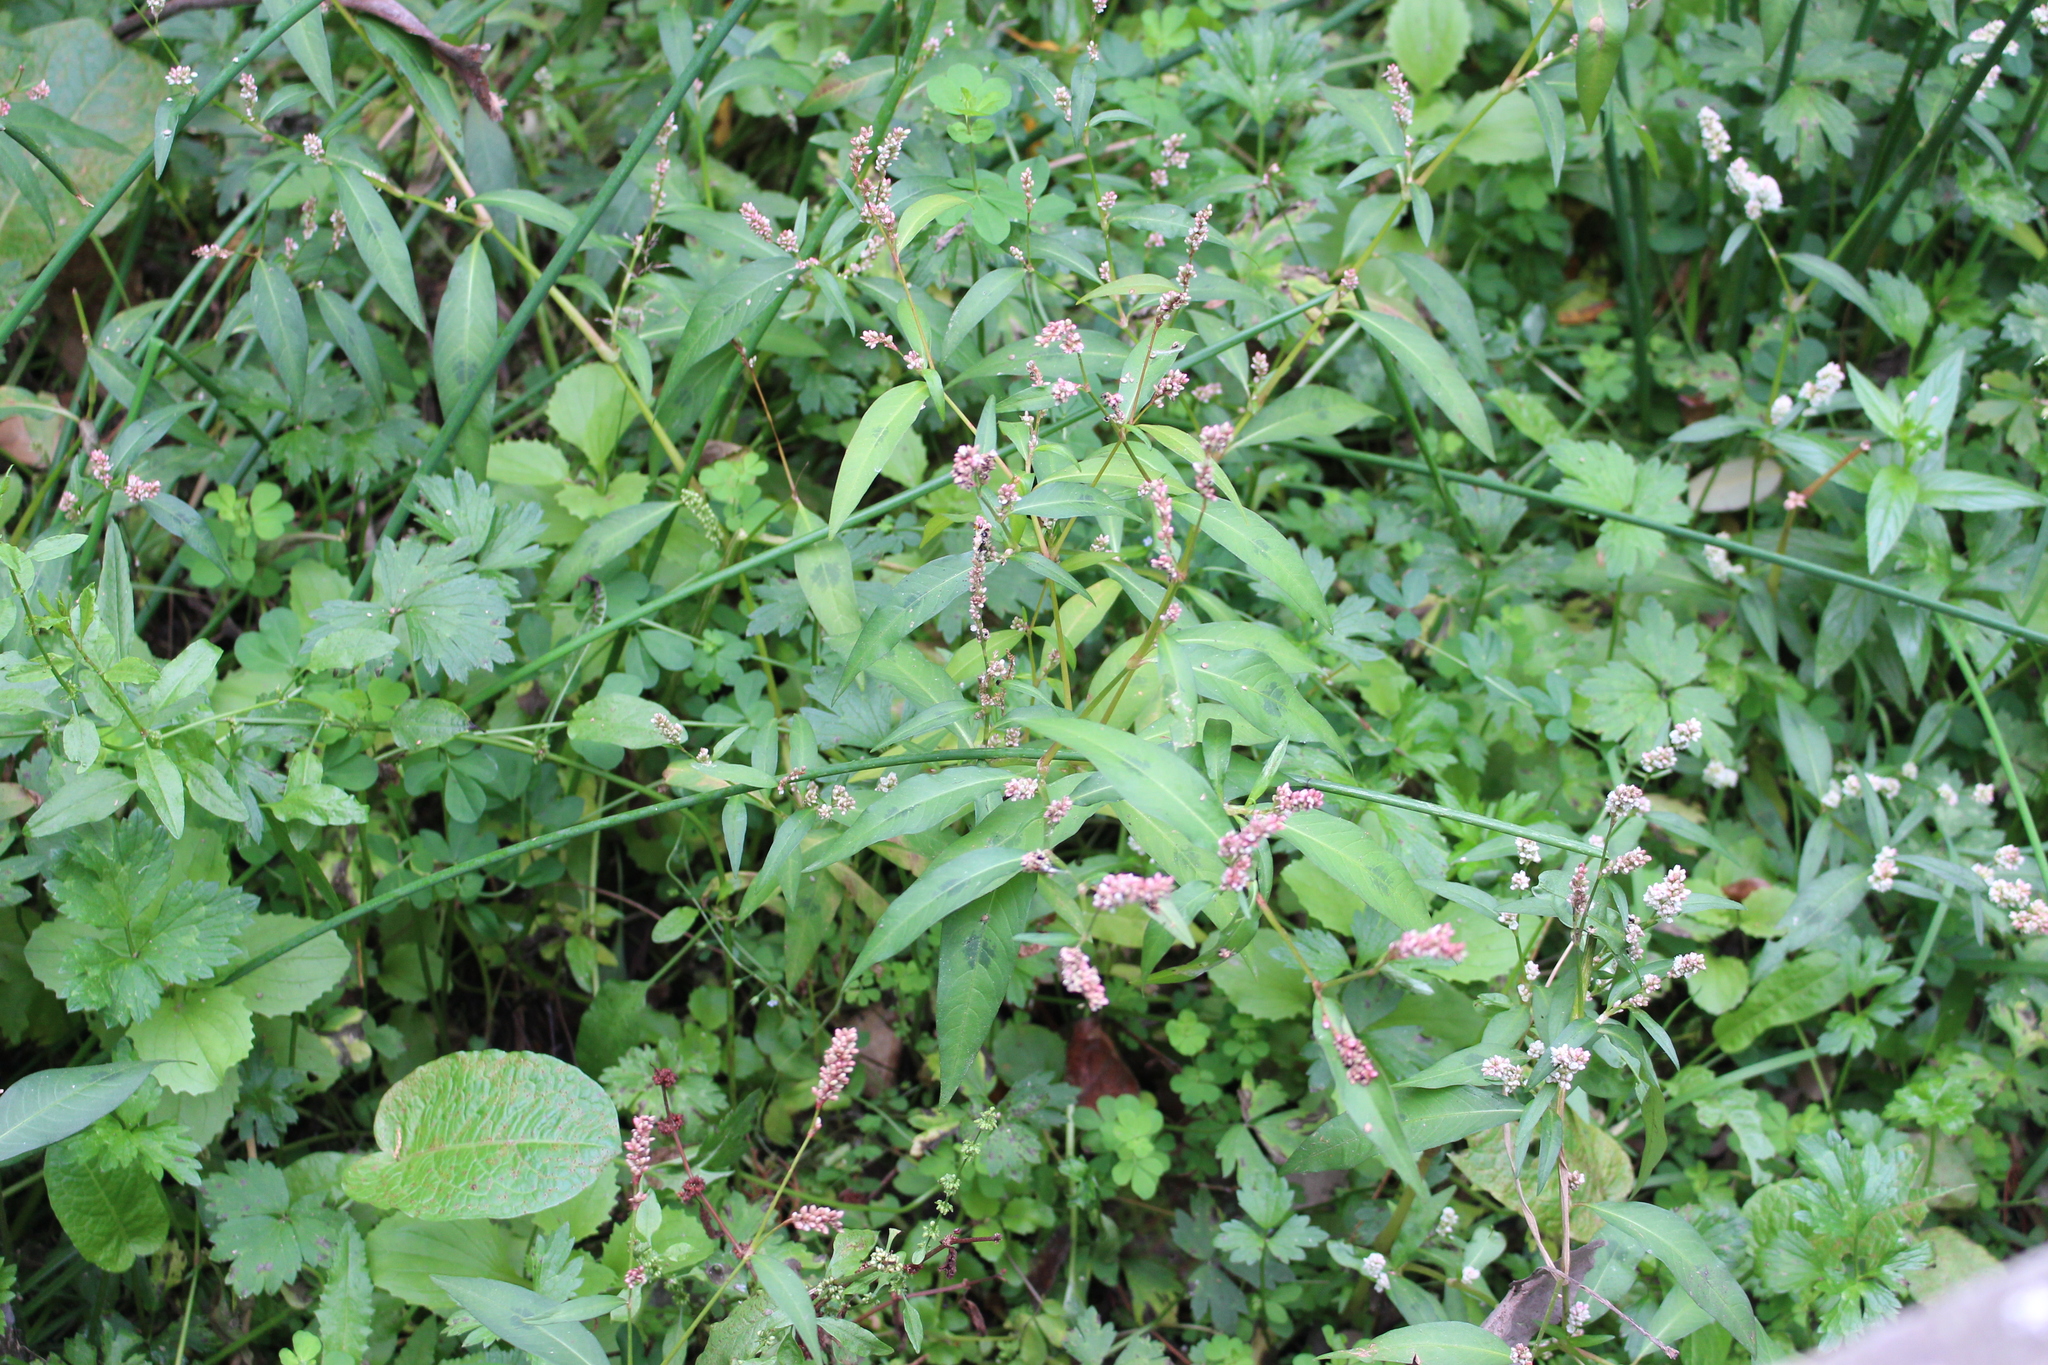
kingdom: Plantae
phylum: Tracheophyta
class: Magnoliopsida
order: Caryophyllales
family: Polygonaceae
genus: Persicaria
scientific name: Persicaria maculosa
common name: Redshank
